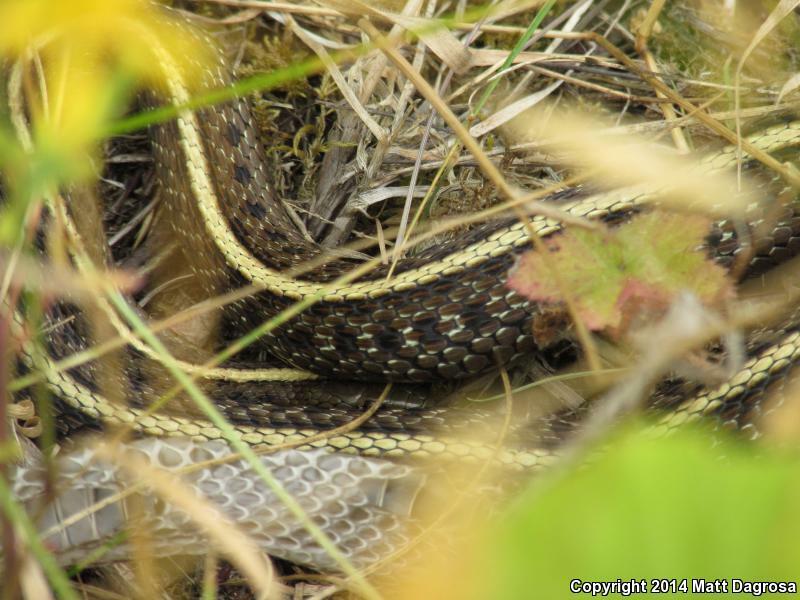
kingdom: Animalia
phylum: Chordata
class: Squamata
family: Colubridae
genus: Thamnophis
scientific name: Thamnophis ordinoides
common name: Northwestern garter snake
